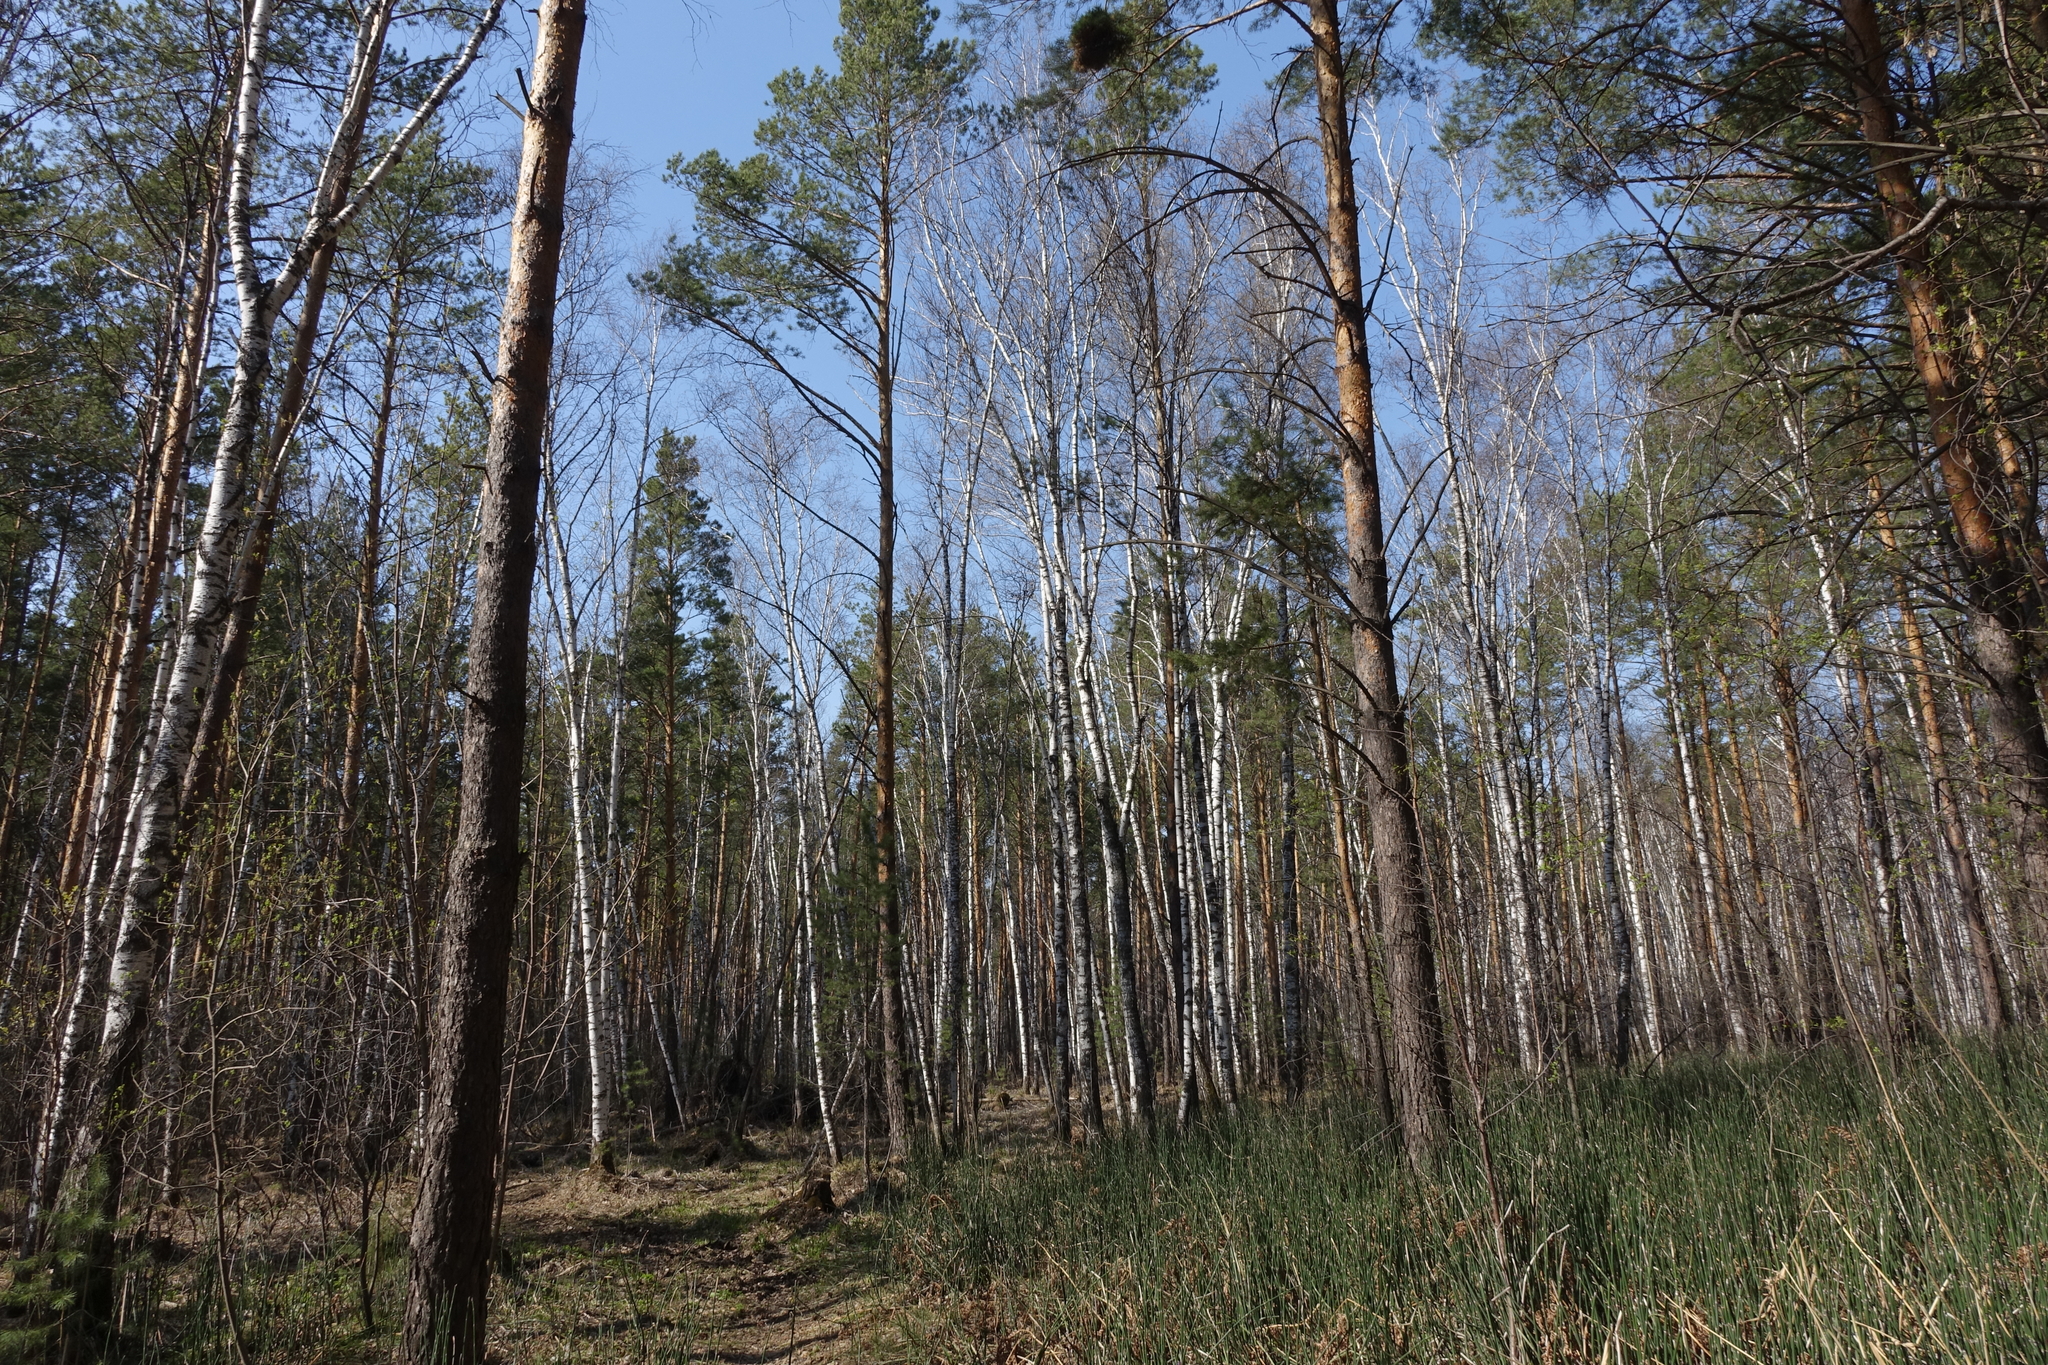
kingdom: Plantae
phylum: Tracheophyta
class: Pinopsida
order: Pinales
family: Pinaceae
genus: Pinus
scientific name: Pinus sylvestris
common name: Scots pine
